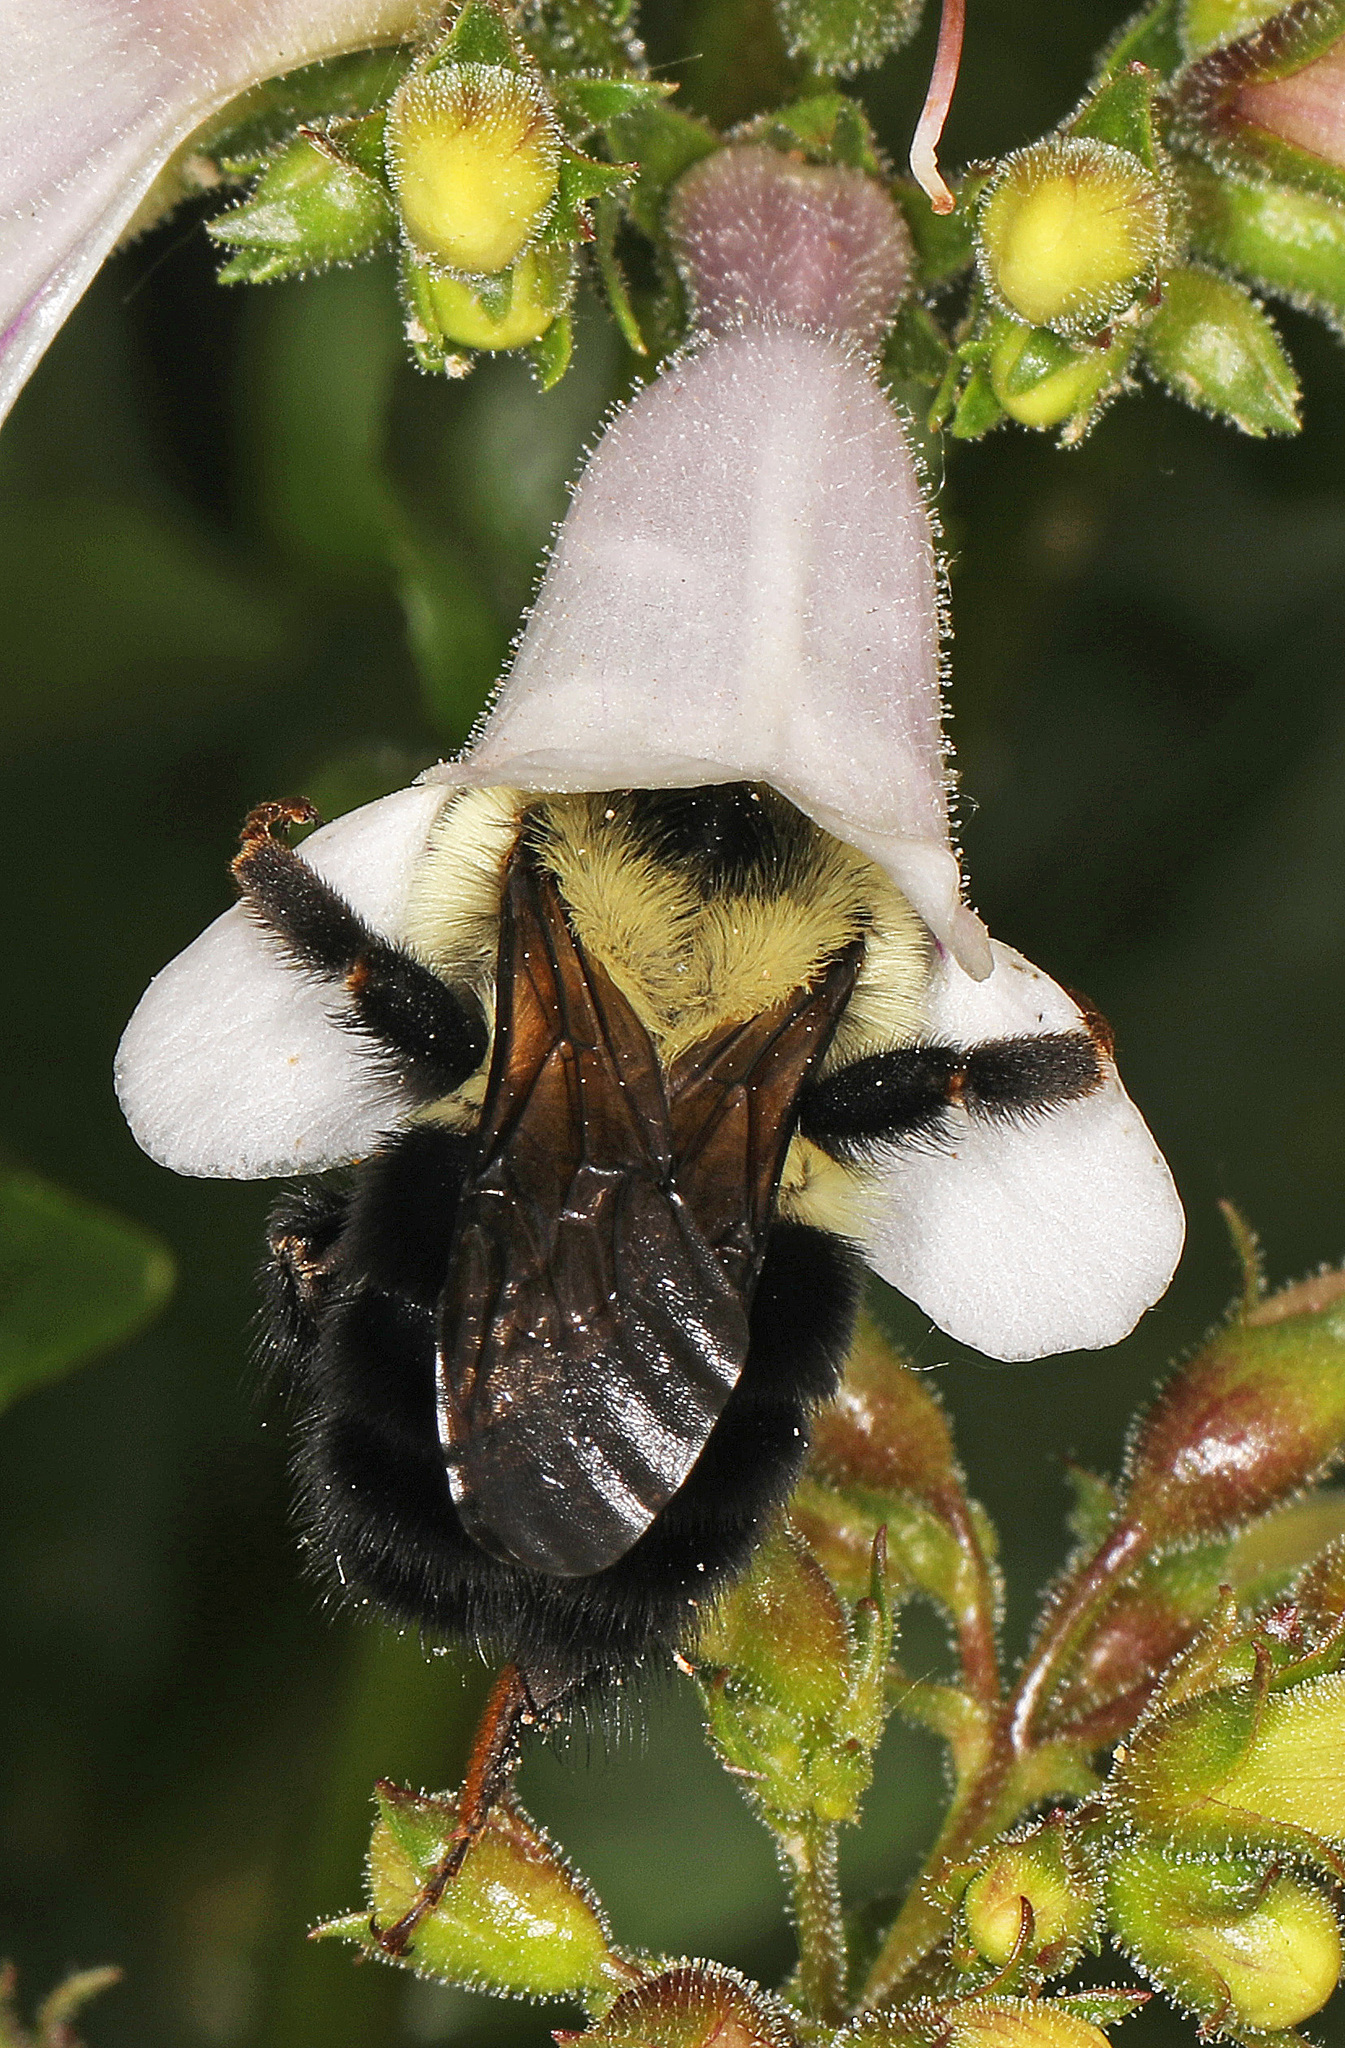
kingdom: Animalia
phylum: Arthropoda
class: Insecta
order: Hymenoptera
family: Apidae
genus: Bombus
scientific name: Bombus bimaculatus
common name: Two-spotted bumble bee
